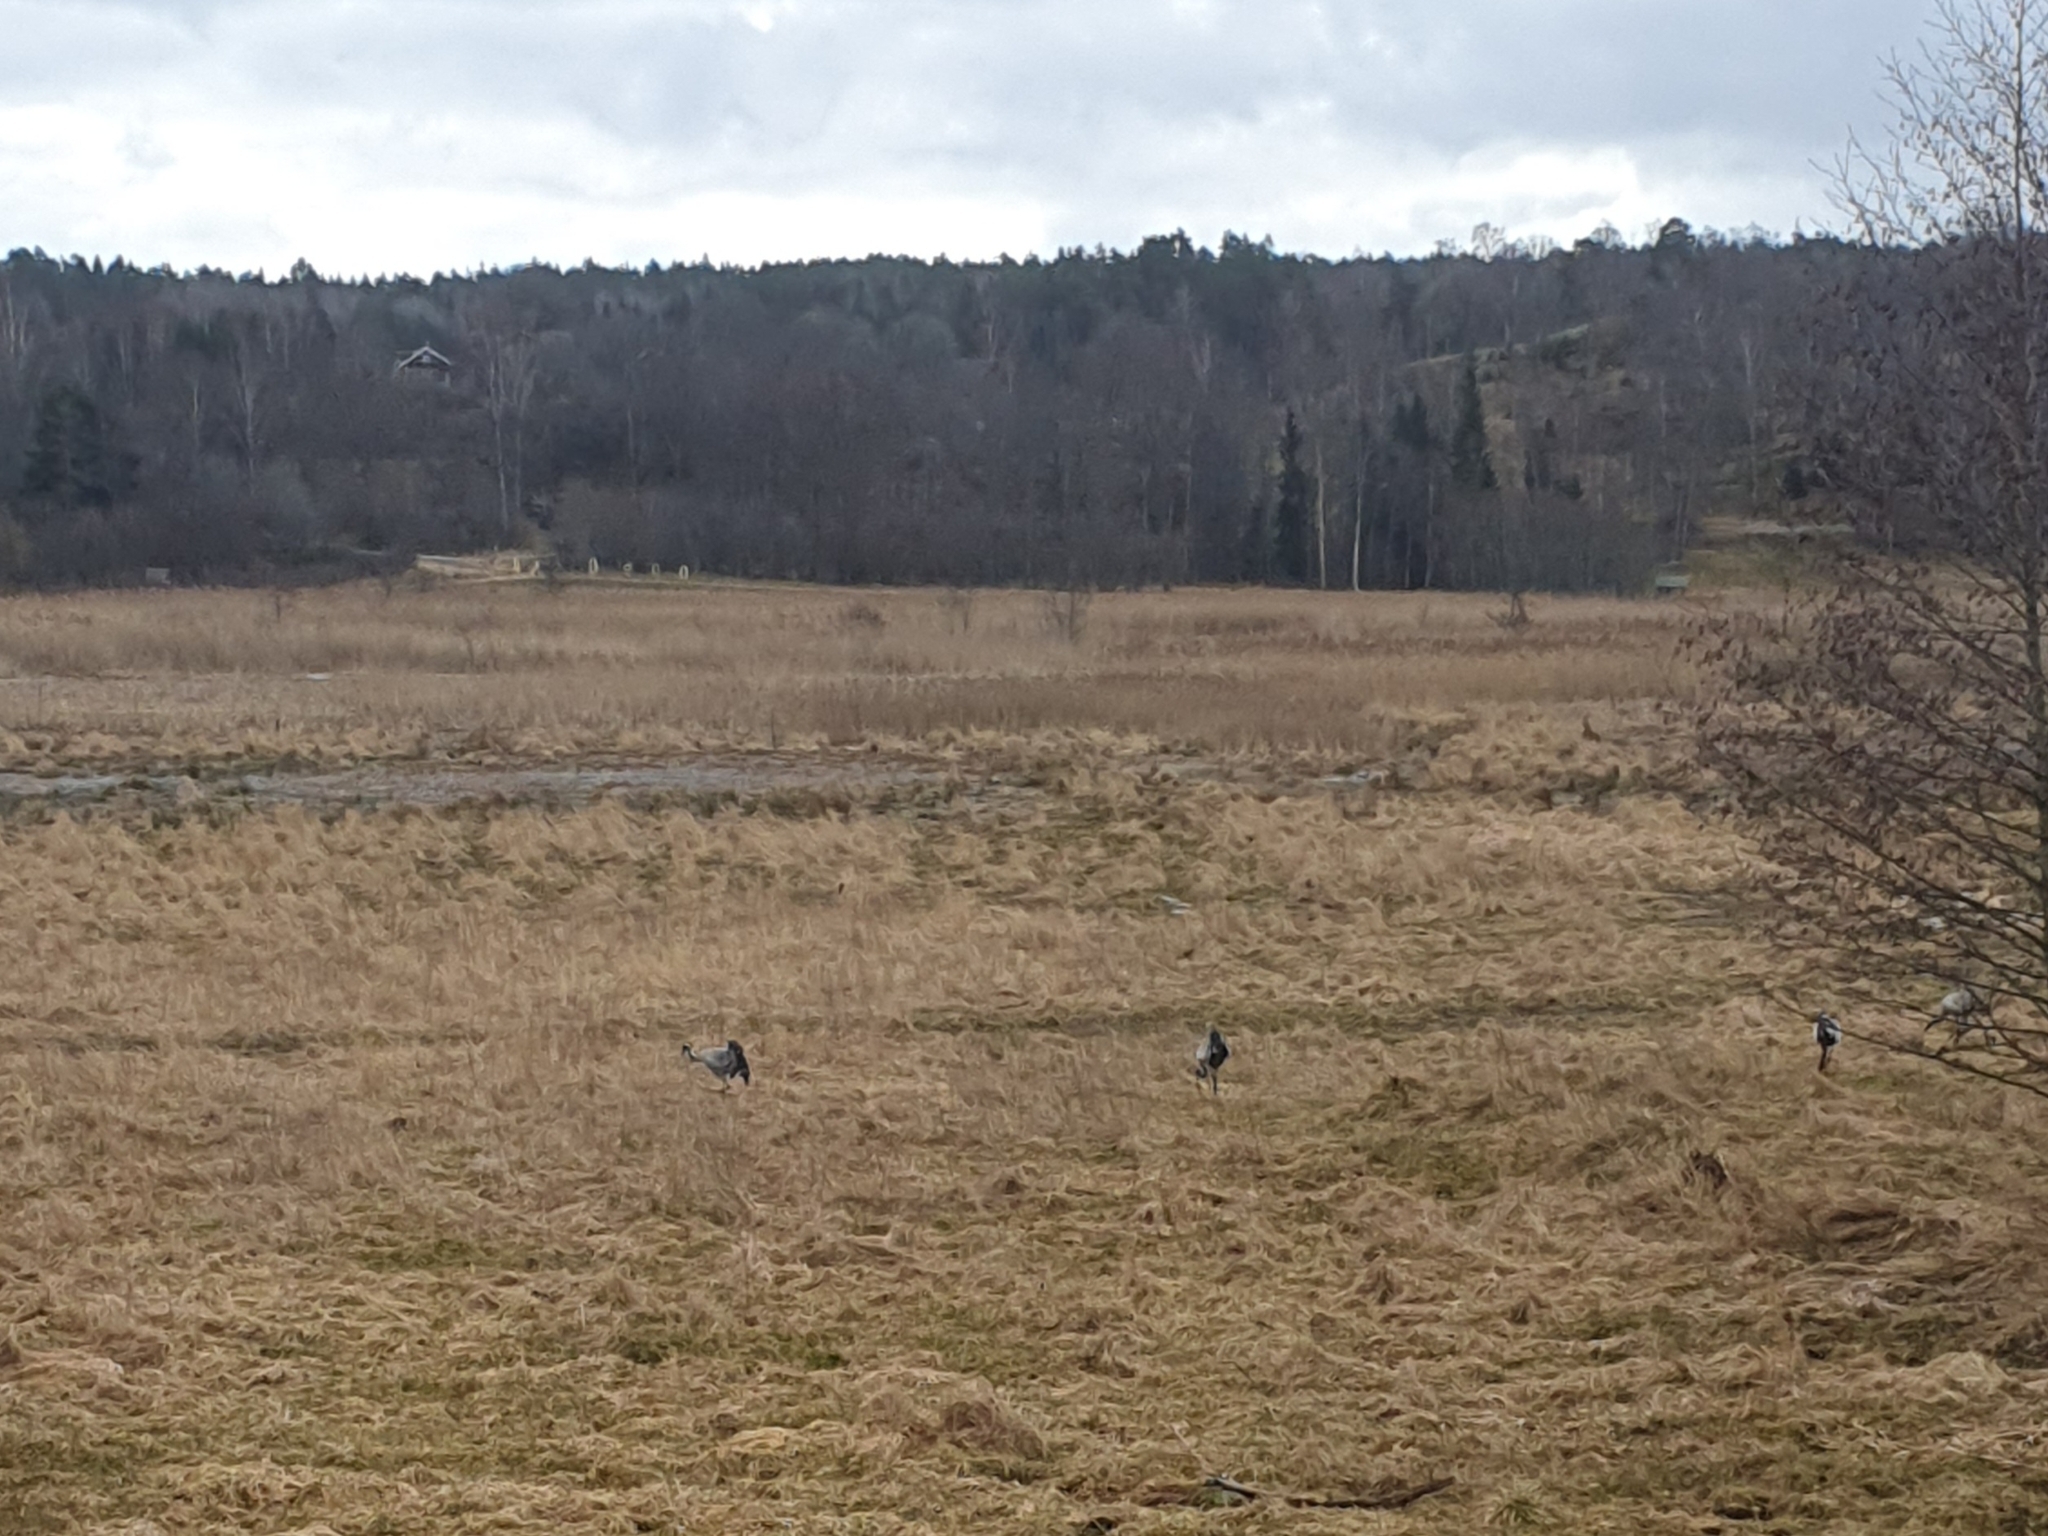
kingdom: Animalia
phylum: Chordata
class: Aves
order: Gruiformes
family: Gruidae
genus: Grus
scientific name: Grus grus
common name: Common crane
